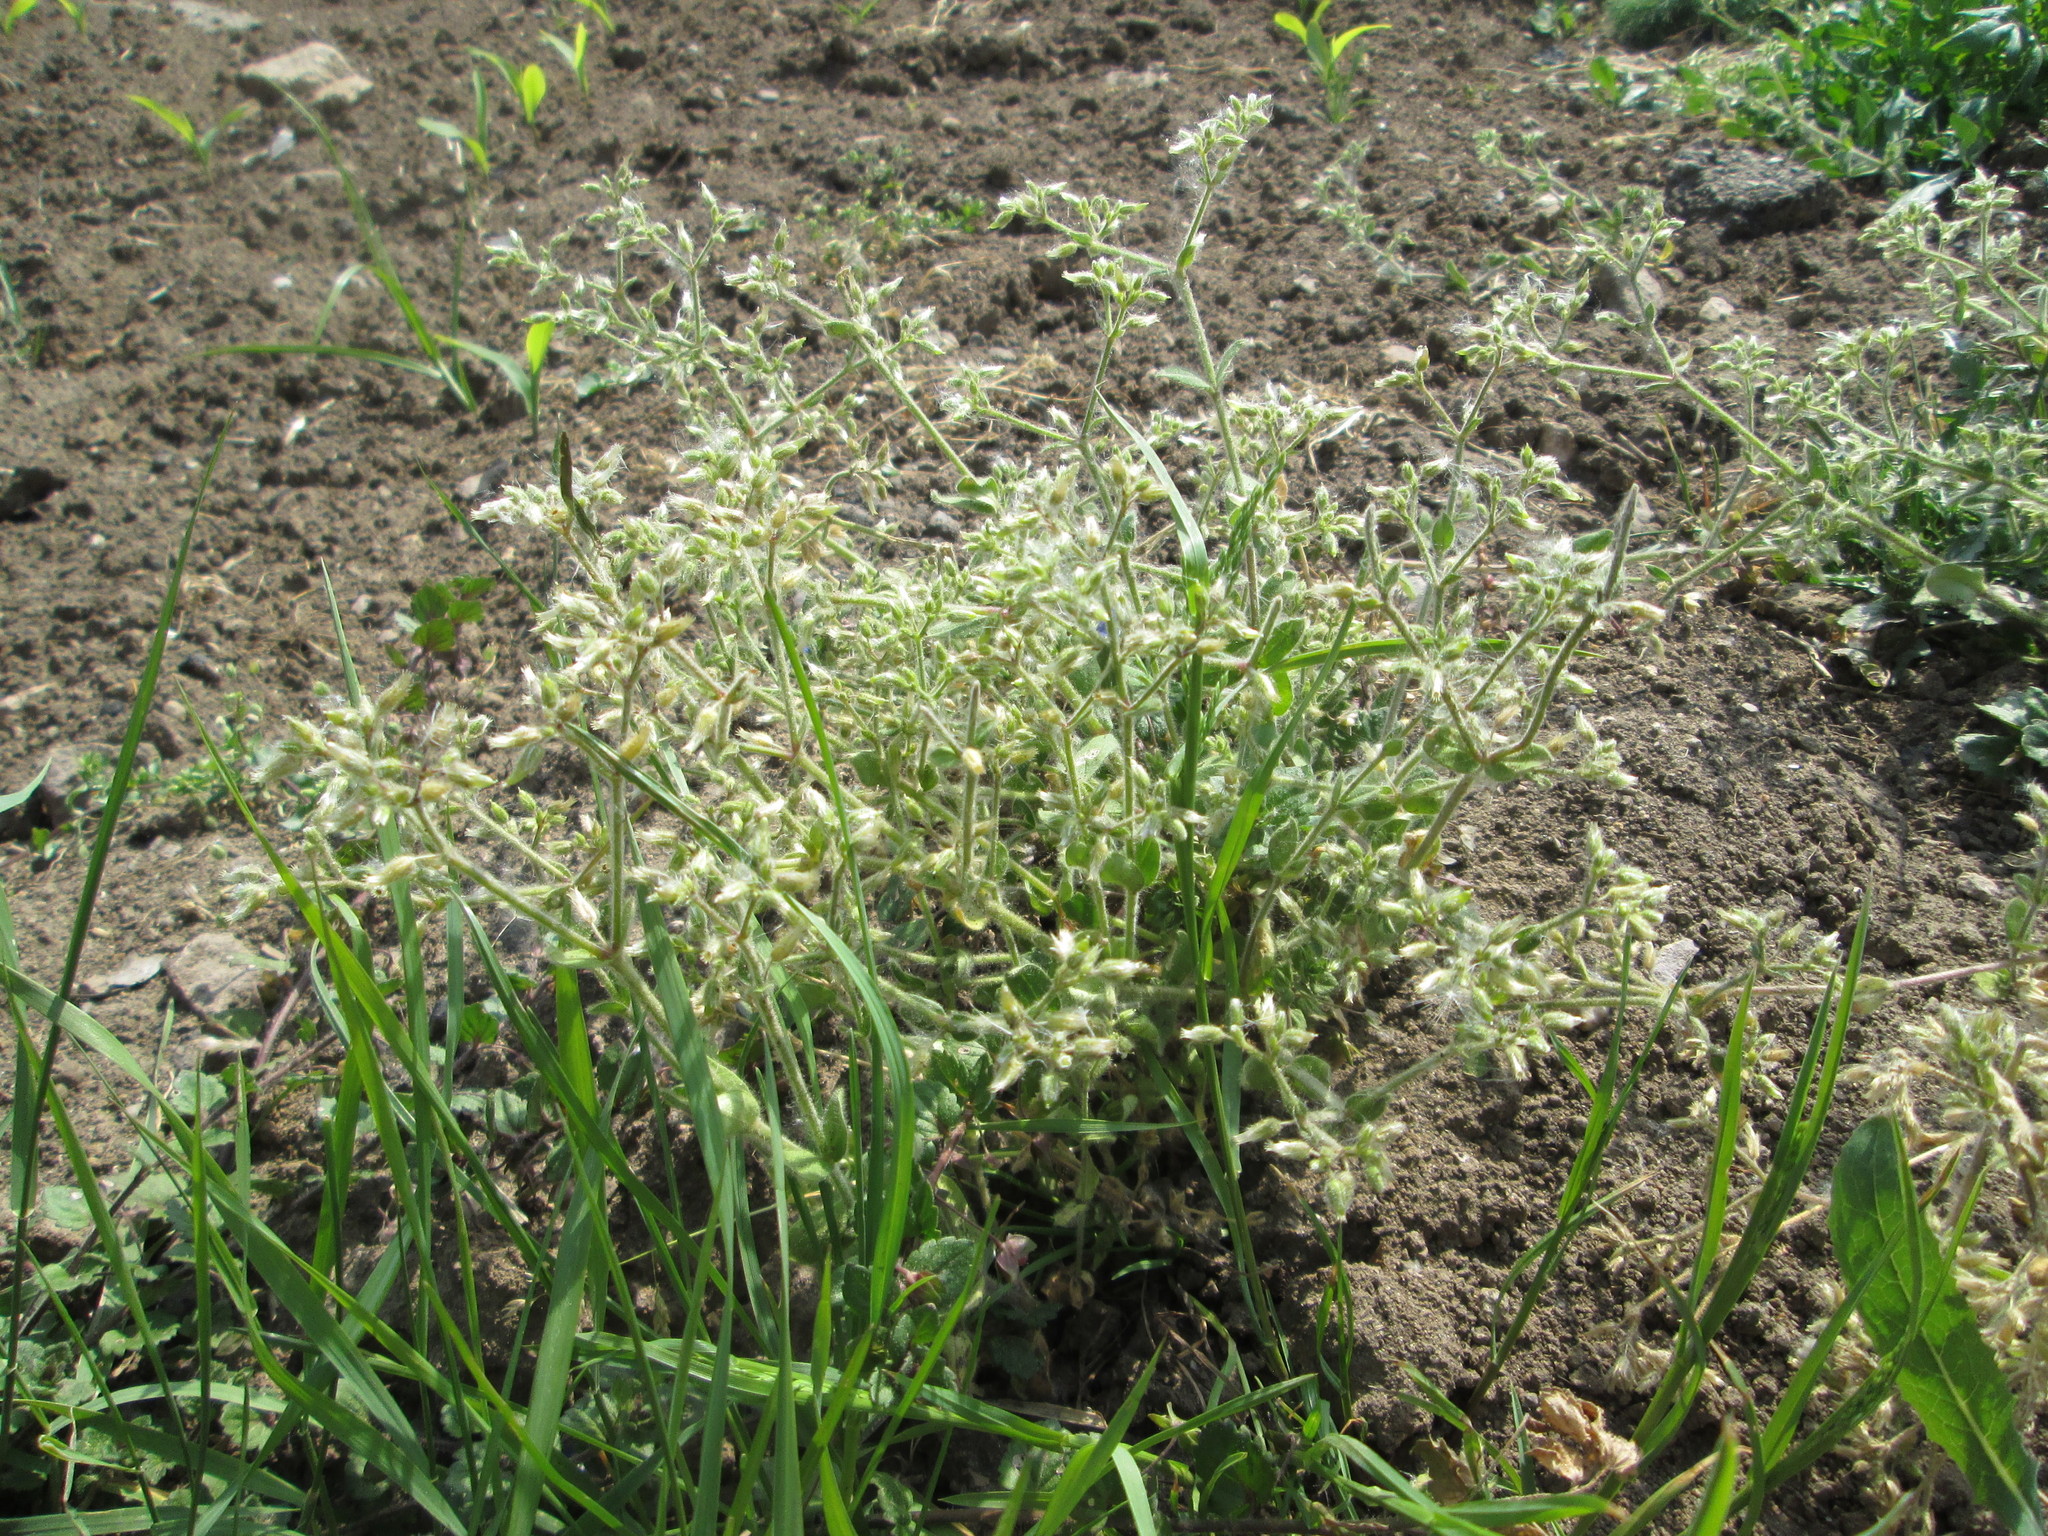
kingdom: Plantae
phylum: Tracheophyta
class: Magnoliopsida
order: Caryophyllales
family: Caryophyllaceae
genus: Cerastium
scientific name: Cerastium glomeratum
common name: Sticky chickweed
